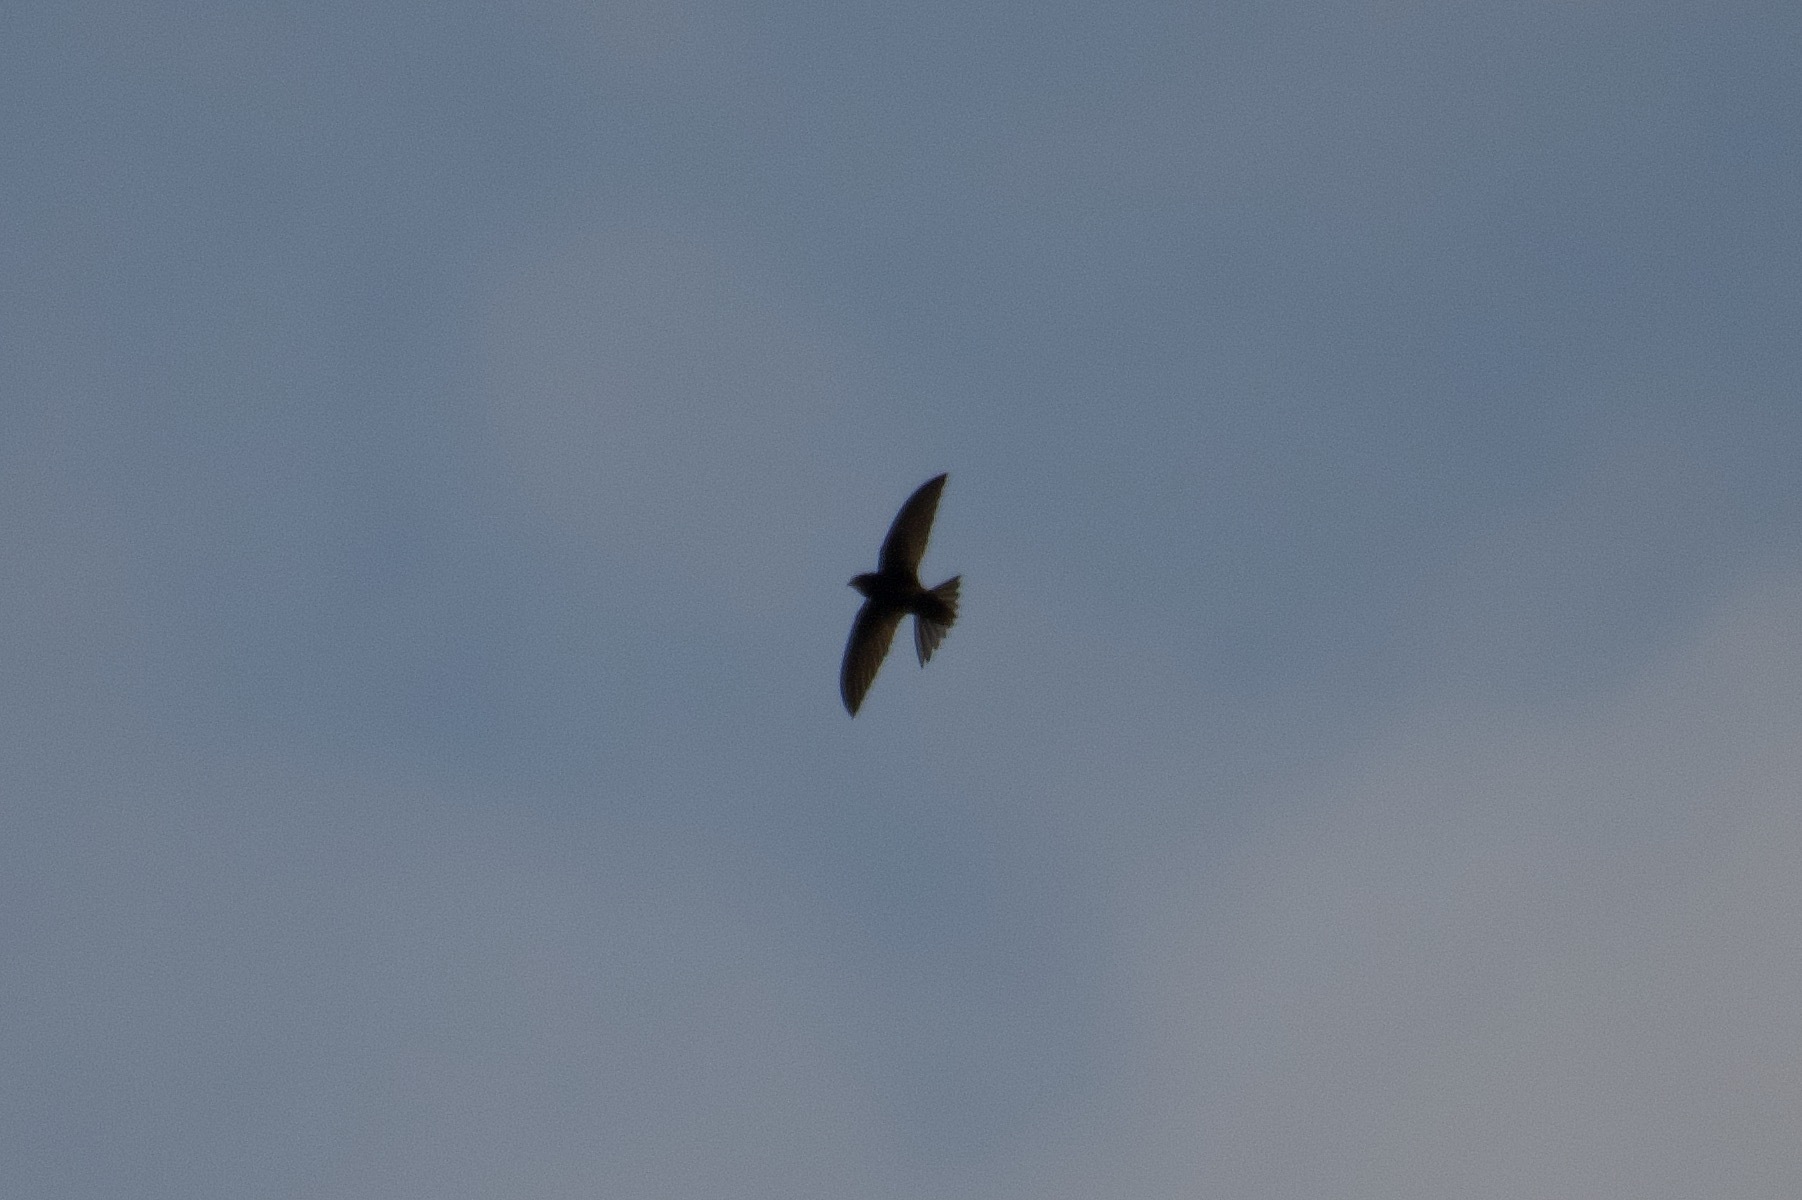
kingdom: Animalia
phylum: Chordata
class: Aves
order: Apodiformes
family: Apodidae
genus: Apus
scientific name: Apus apus
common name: Common swift
